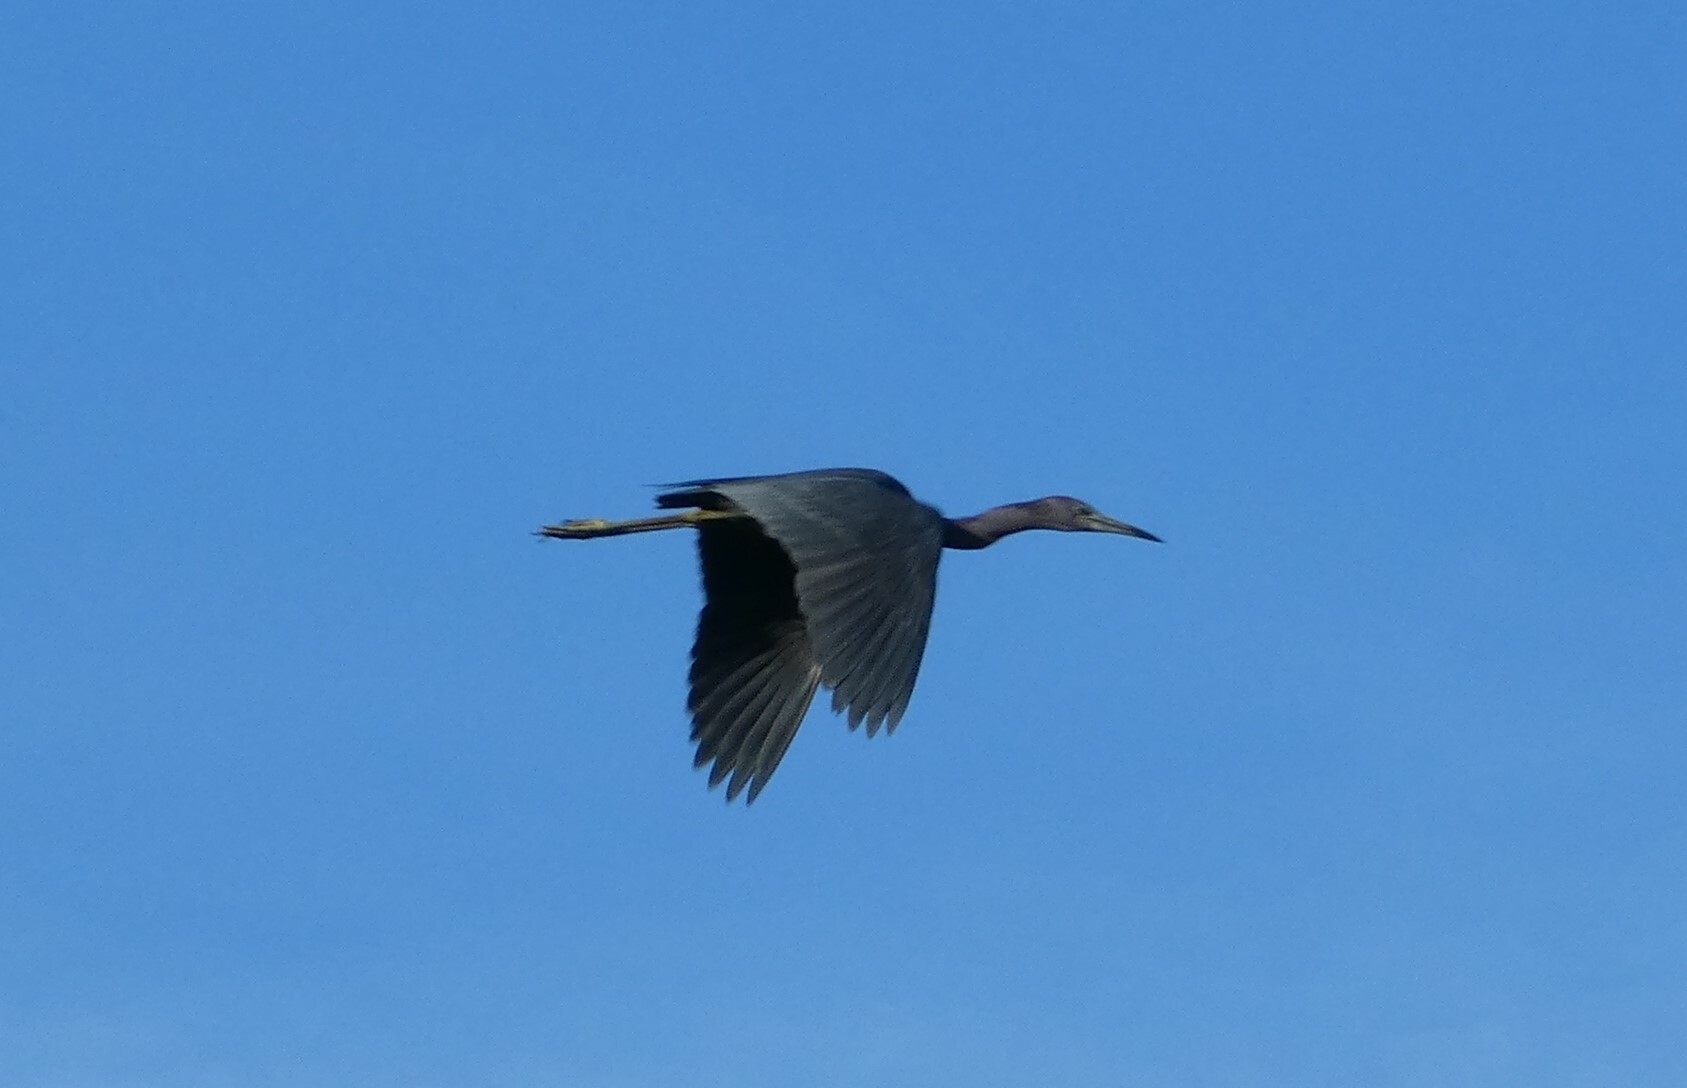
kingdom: Animalia
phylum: Chordata
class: Aves
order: Pelecaniformes
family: Ardeidae
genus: Egretta
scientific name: Egretta caerulea
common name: Little blue heron
